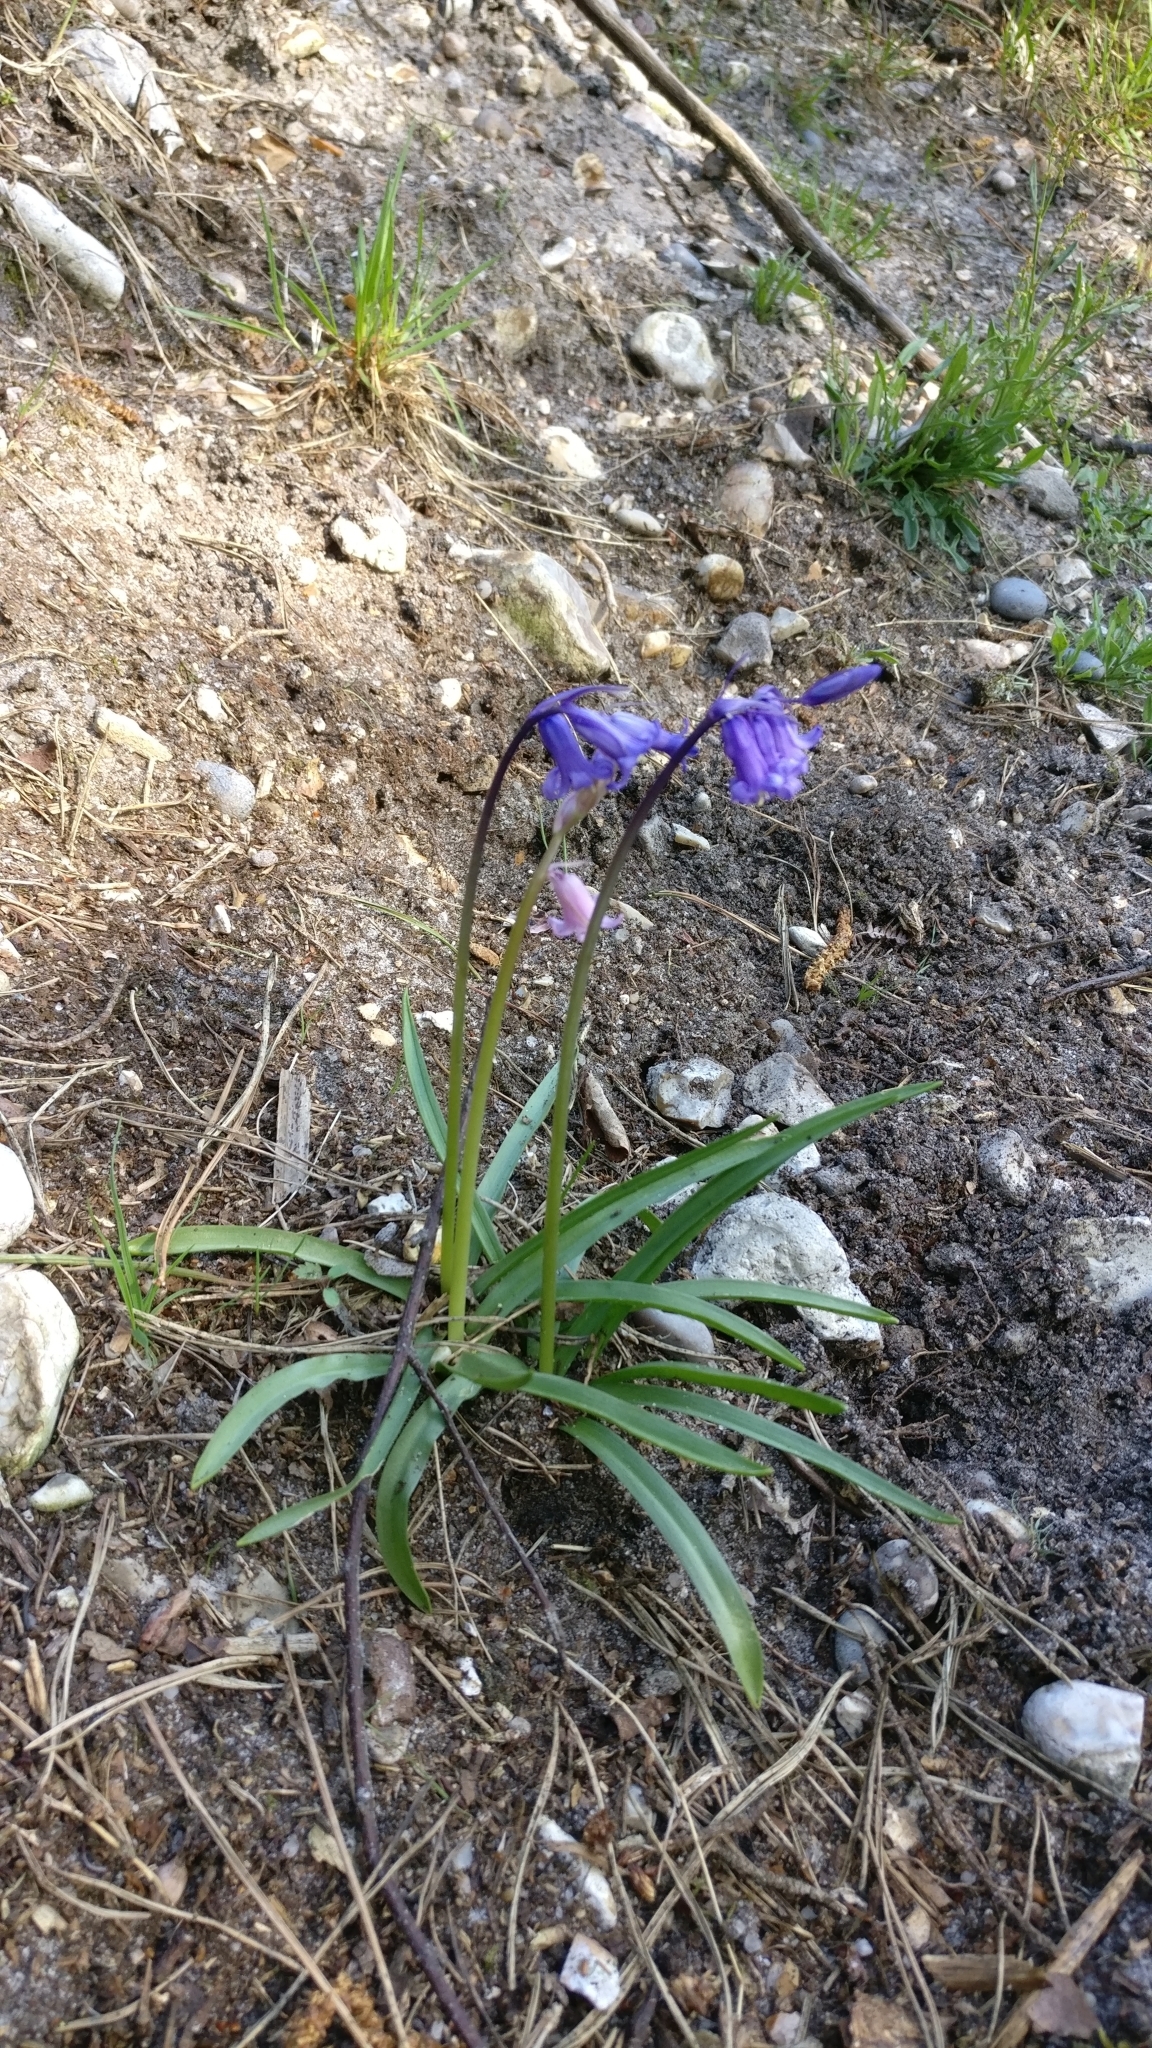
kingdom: Plantae
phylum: Tracheophyta
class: Liliopsida
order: Asparagales
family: Asparagaceae
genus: Hyacinthoides
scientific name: Hyacinthoides non-scripta
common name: Bluebell
